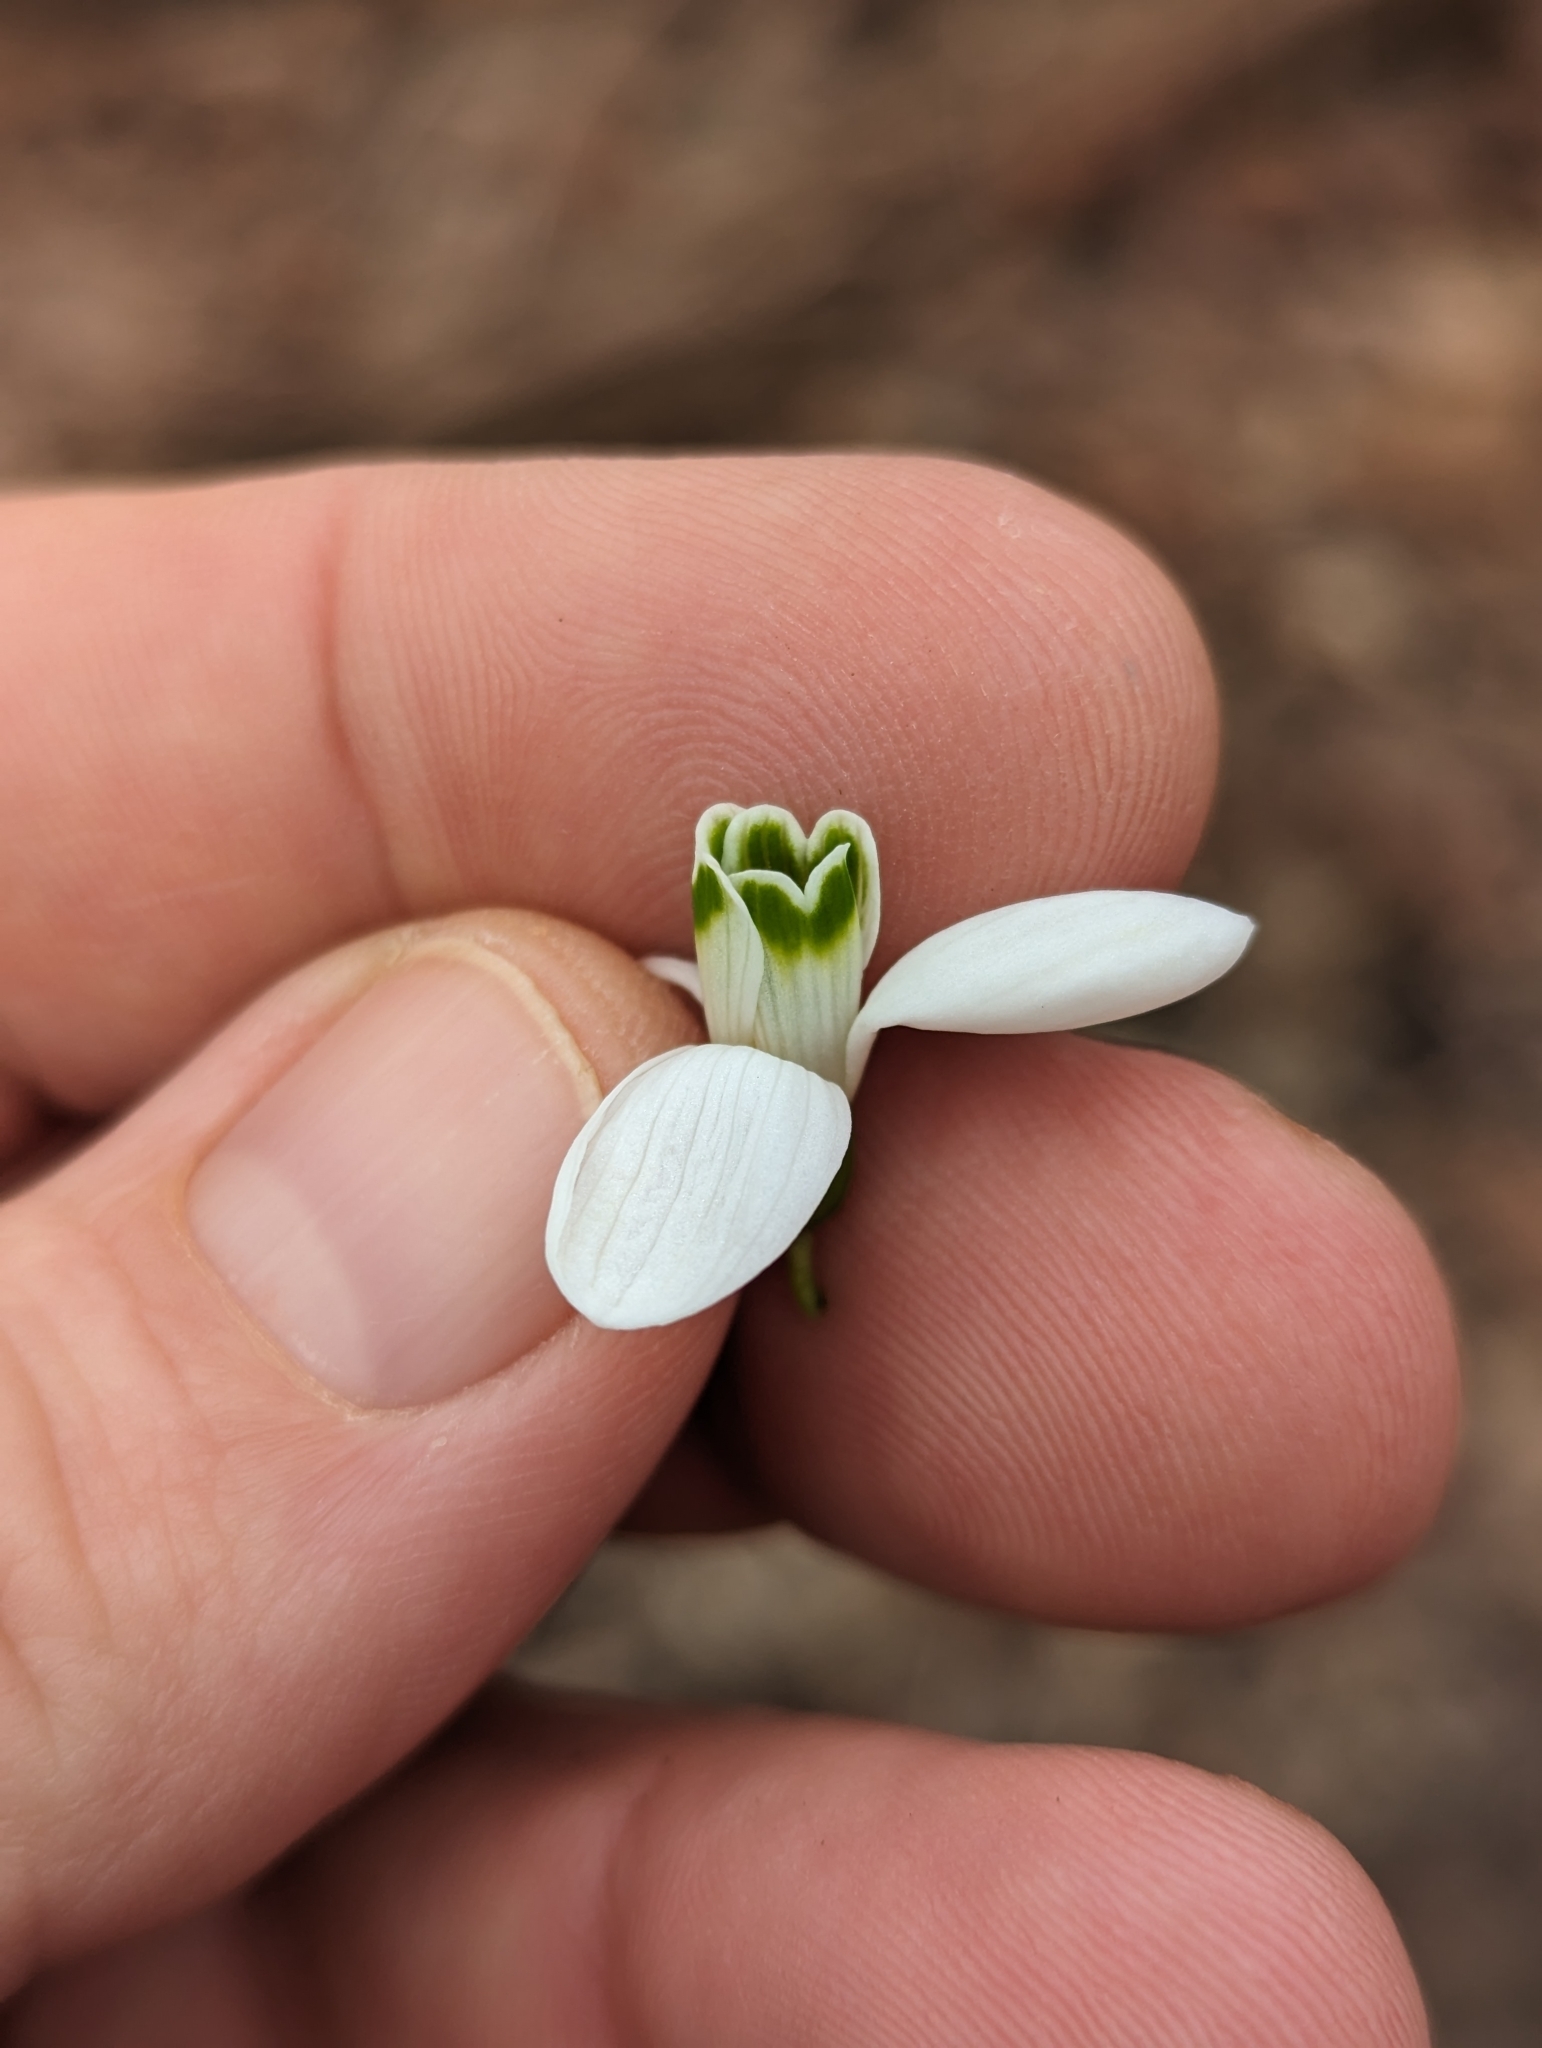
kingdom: Plantae
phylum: Tracheophyta
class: Liliopsida
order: Asparagales
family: Amaryllidaceae
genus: Galanthus
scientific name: Galanthus nivalis
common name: Snowdrop
